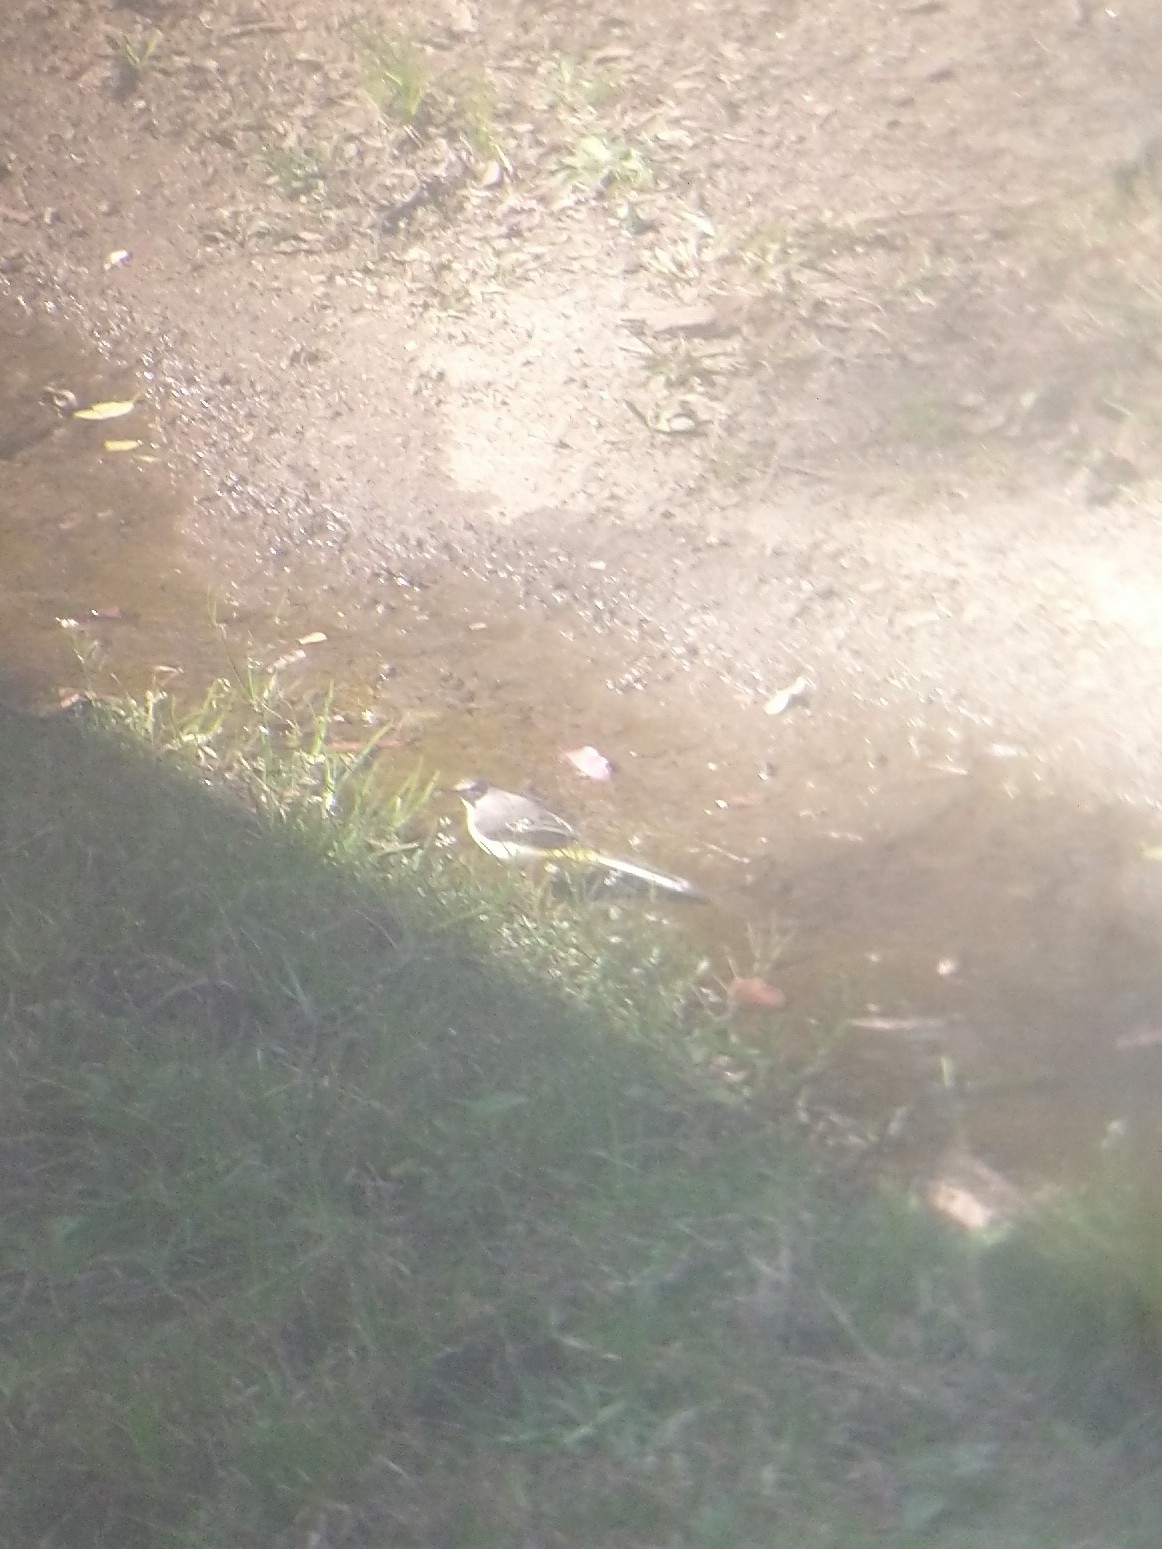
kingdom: Animalia
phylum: Chordata
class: Aves
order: Passeriformes
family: Motacillidae
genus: Motacilla
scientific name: Motacilla cinerea
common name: Grey wagtail
